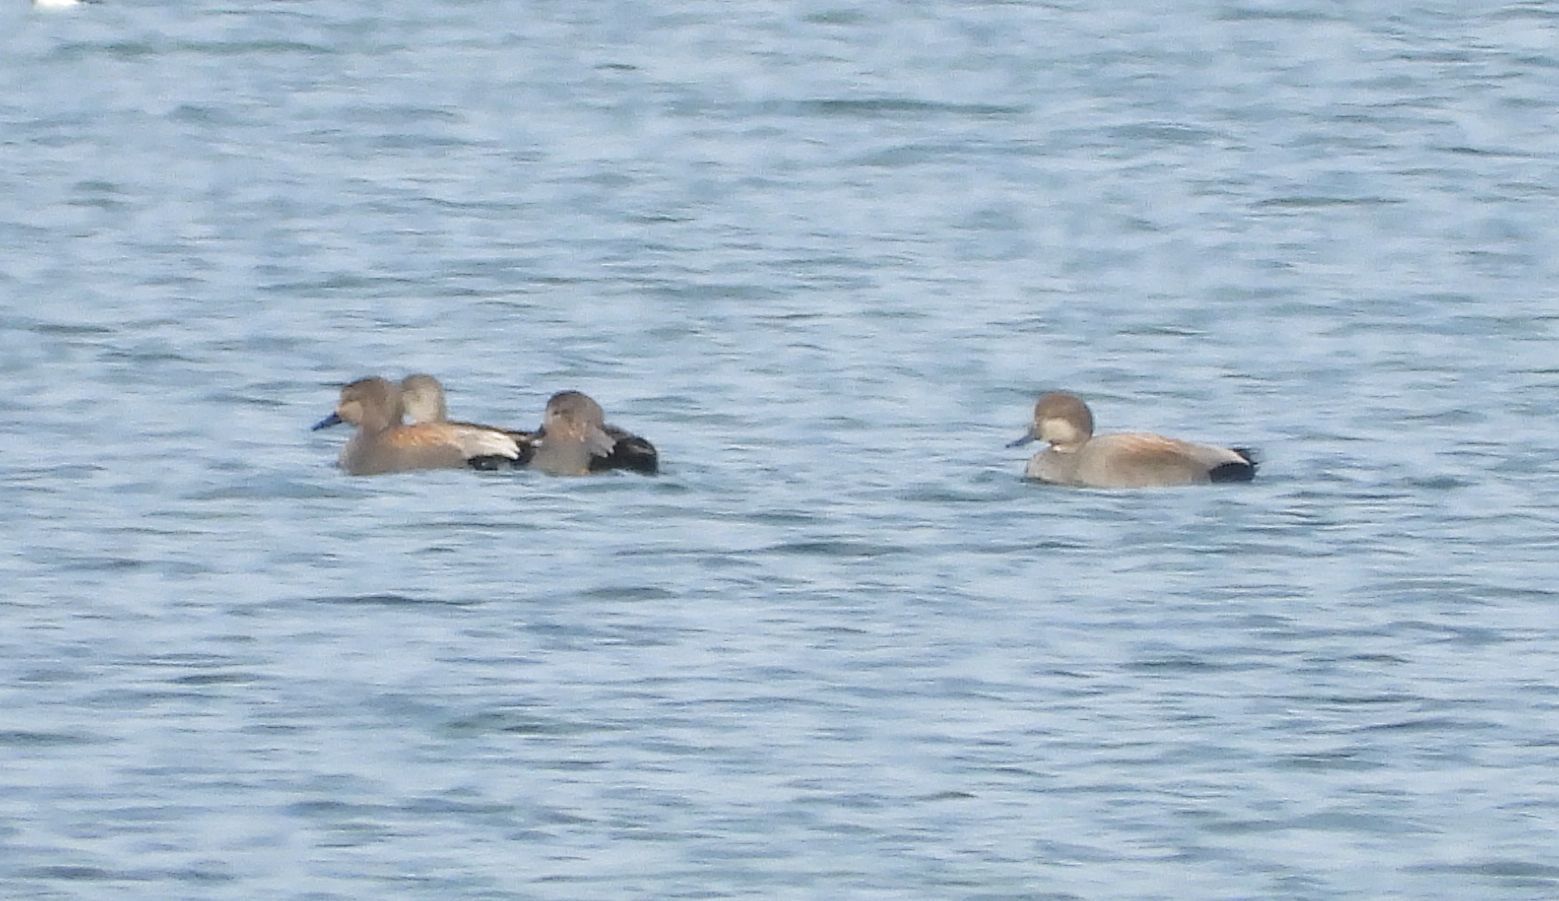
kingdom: Animalia
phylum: Chordata
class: Aves
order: Anseriformes
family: Anatidae
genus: Mareca
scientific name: Mareca strepera
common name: Gadwall
